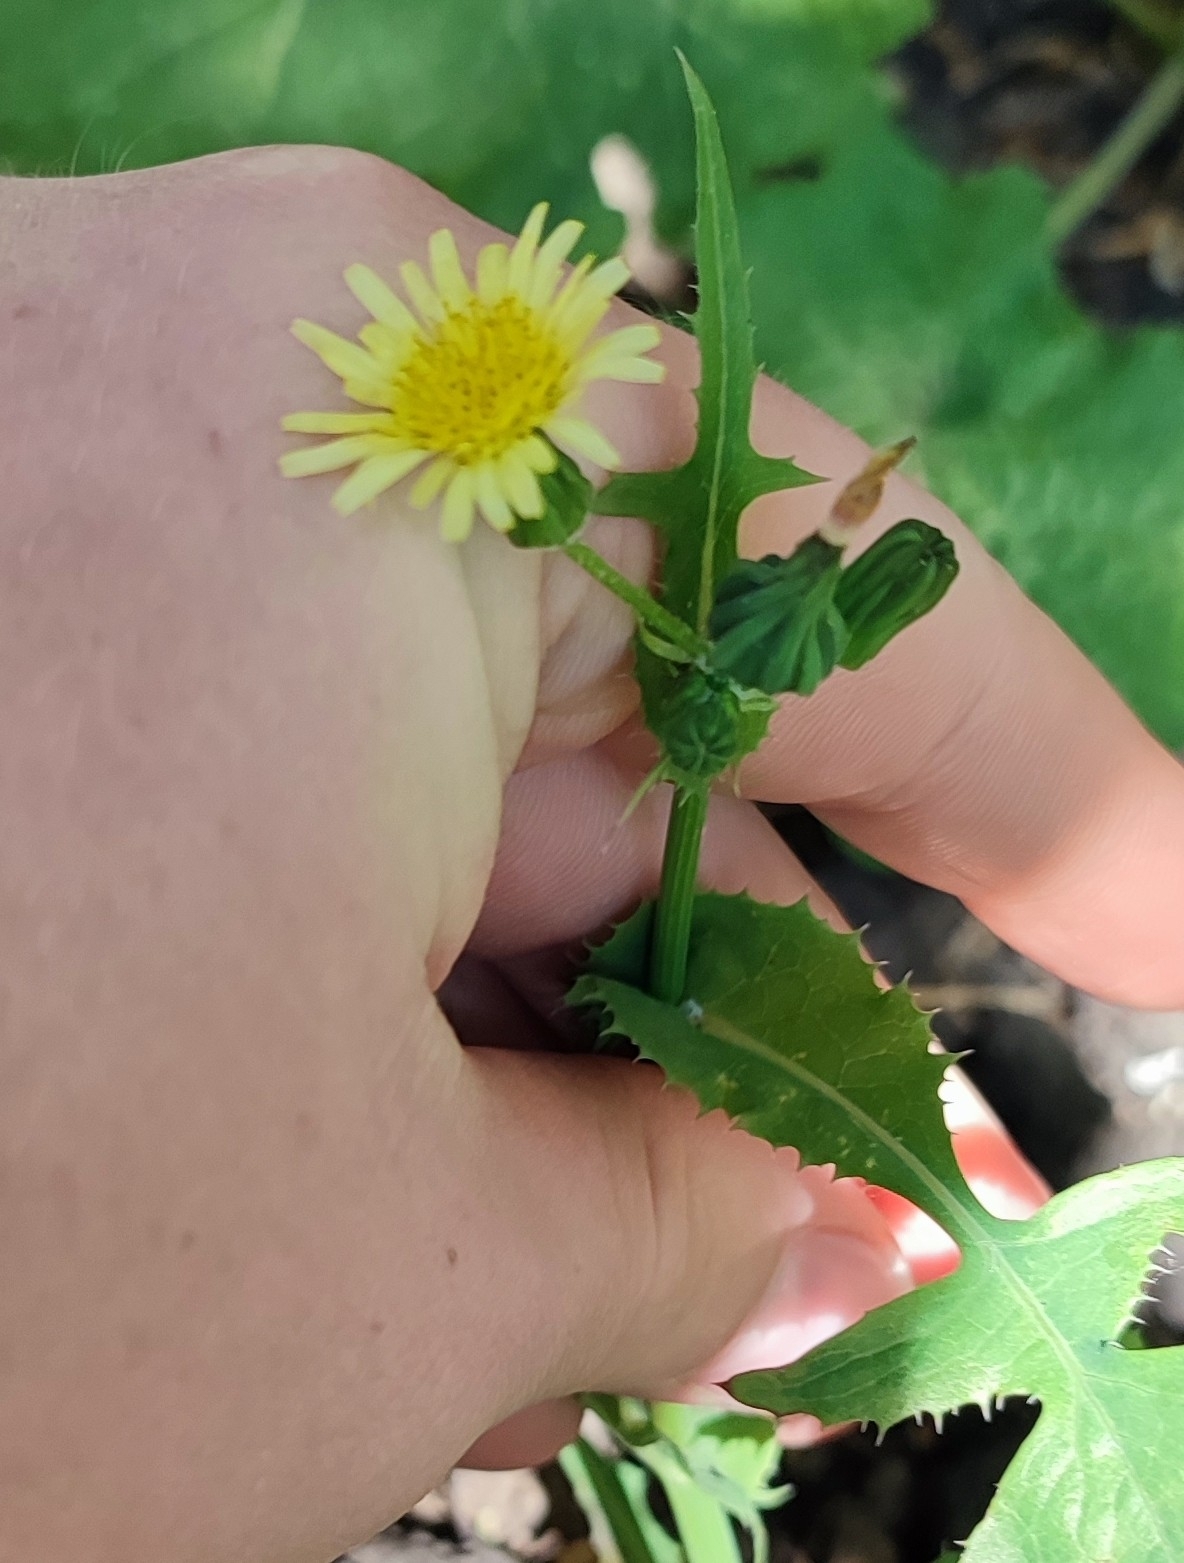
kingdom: Plantae
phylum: Tracheophyta
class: Magnoliopsida
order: Asterales
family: Asteraceae
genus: Sonchus
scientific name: Sonchus oleraceus
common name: Common sowthistle
